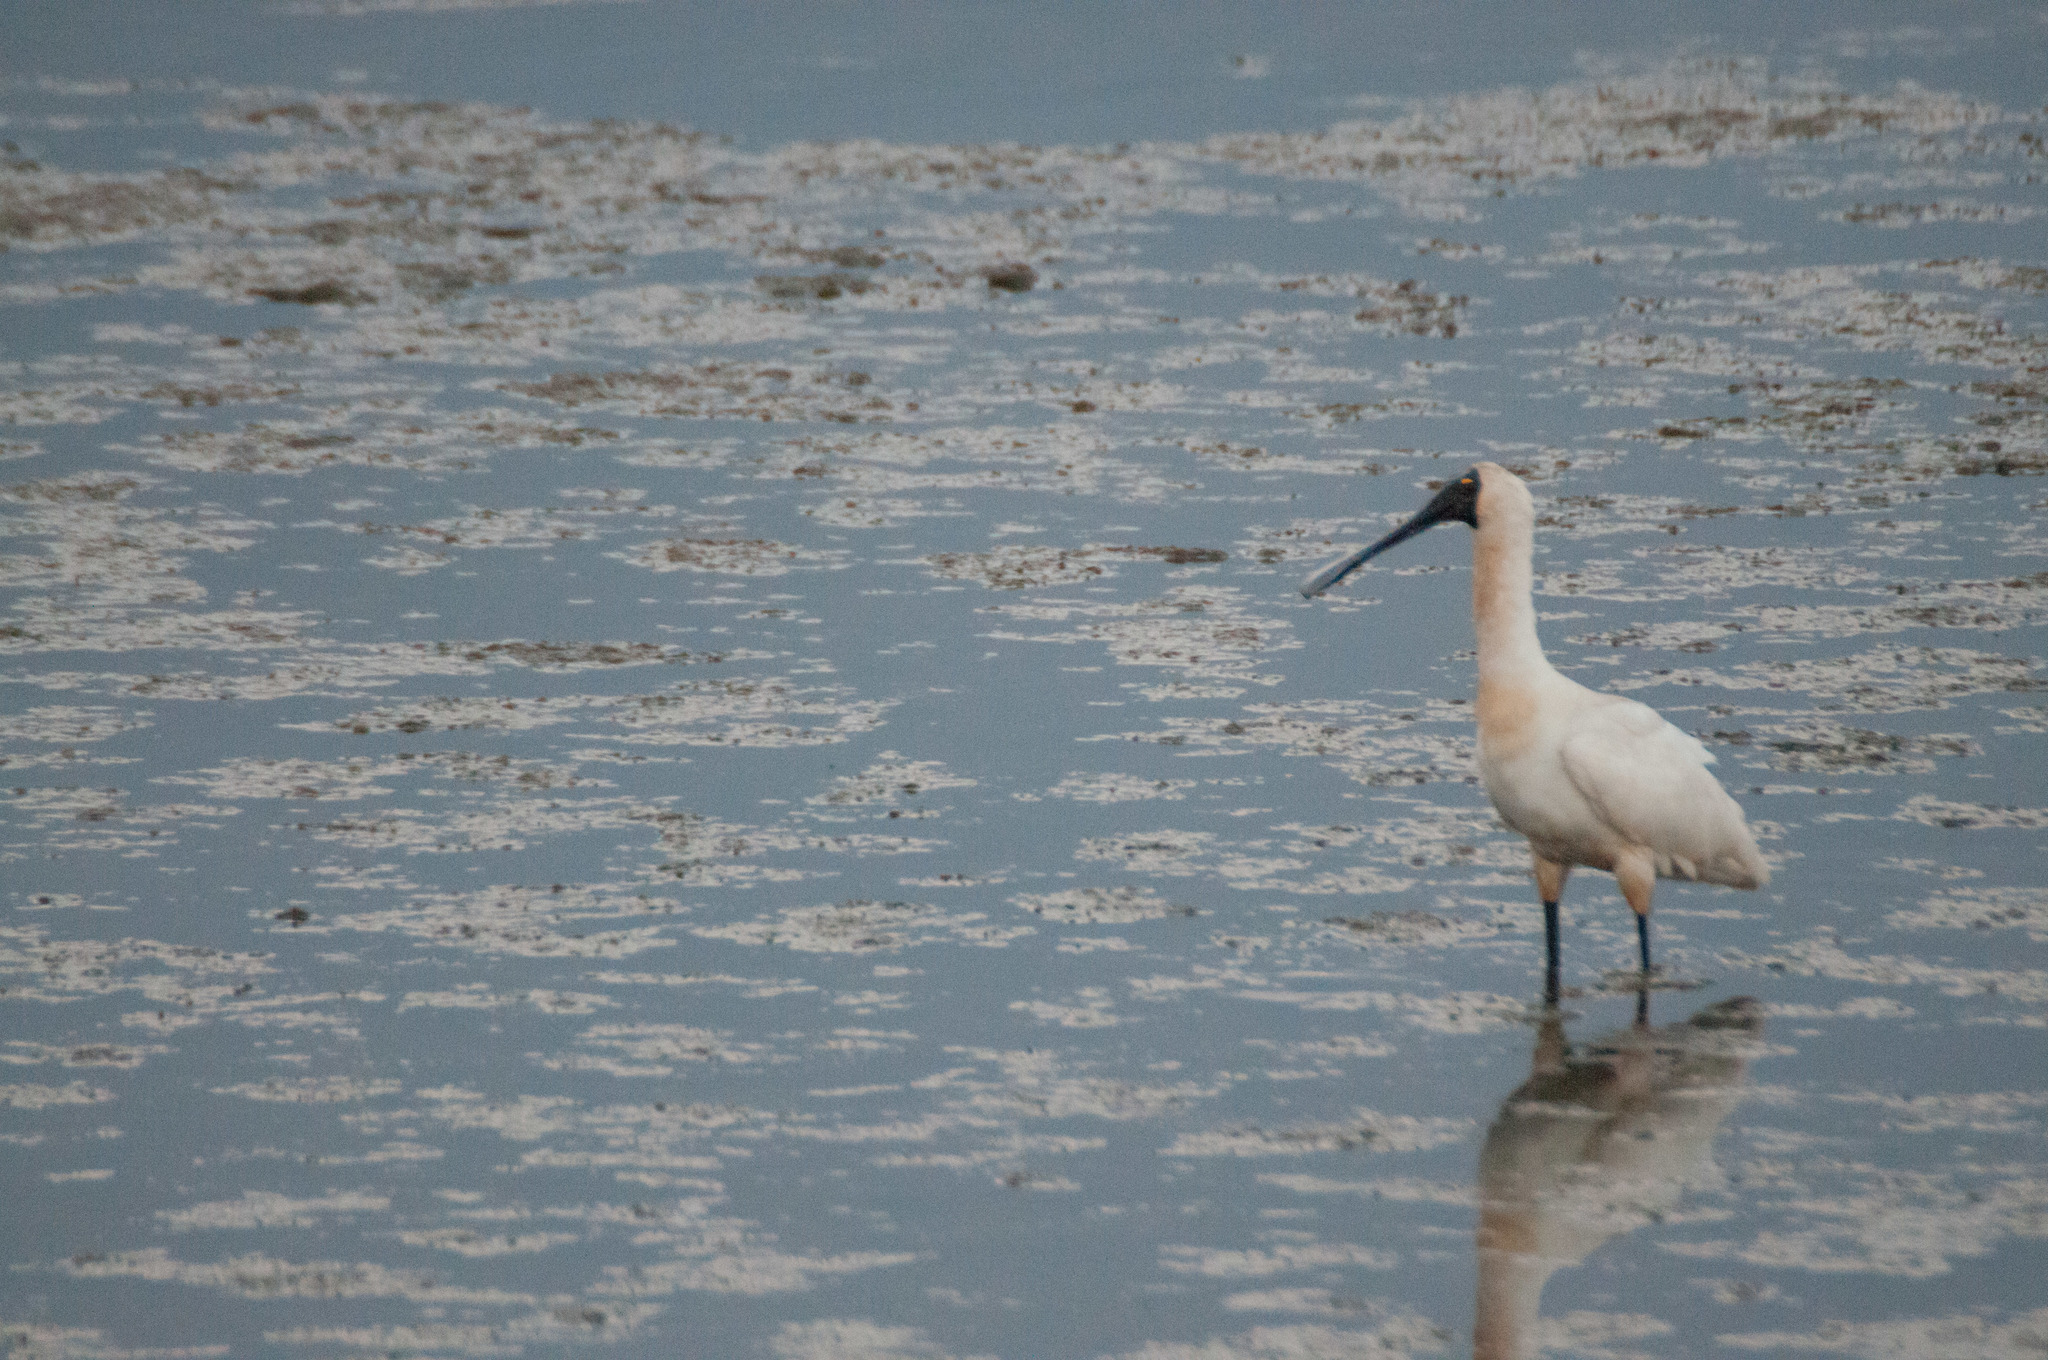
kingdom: Animalia
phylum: Chordata
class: Aves
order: Pelecaniformes
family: Threskiornithidae
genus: Platalea
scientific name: Platalea regia
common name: Royal spoonbill
